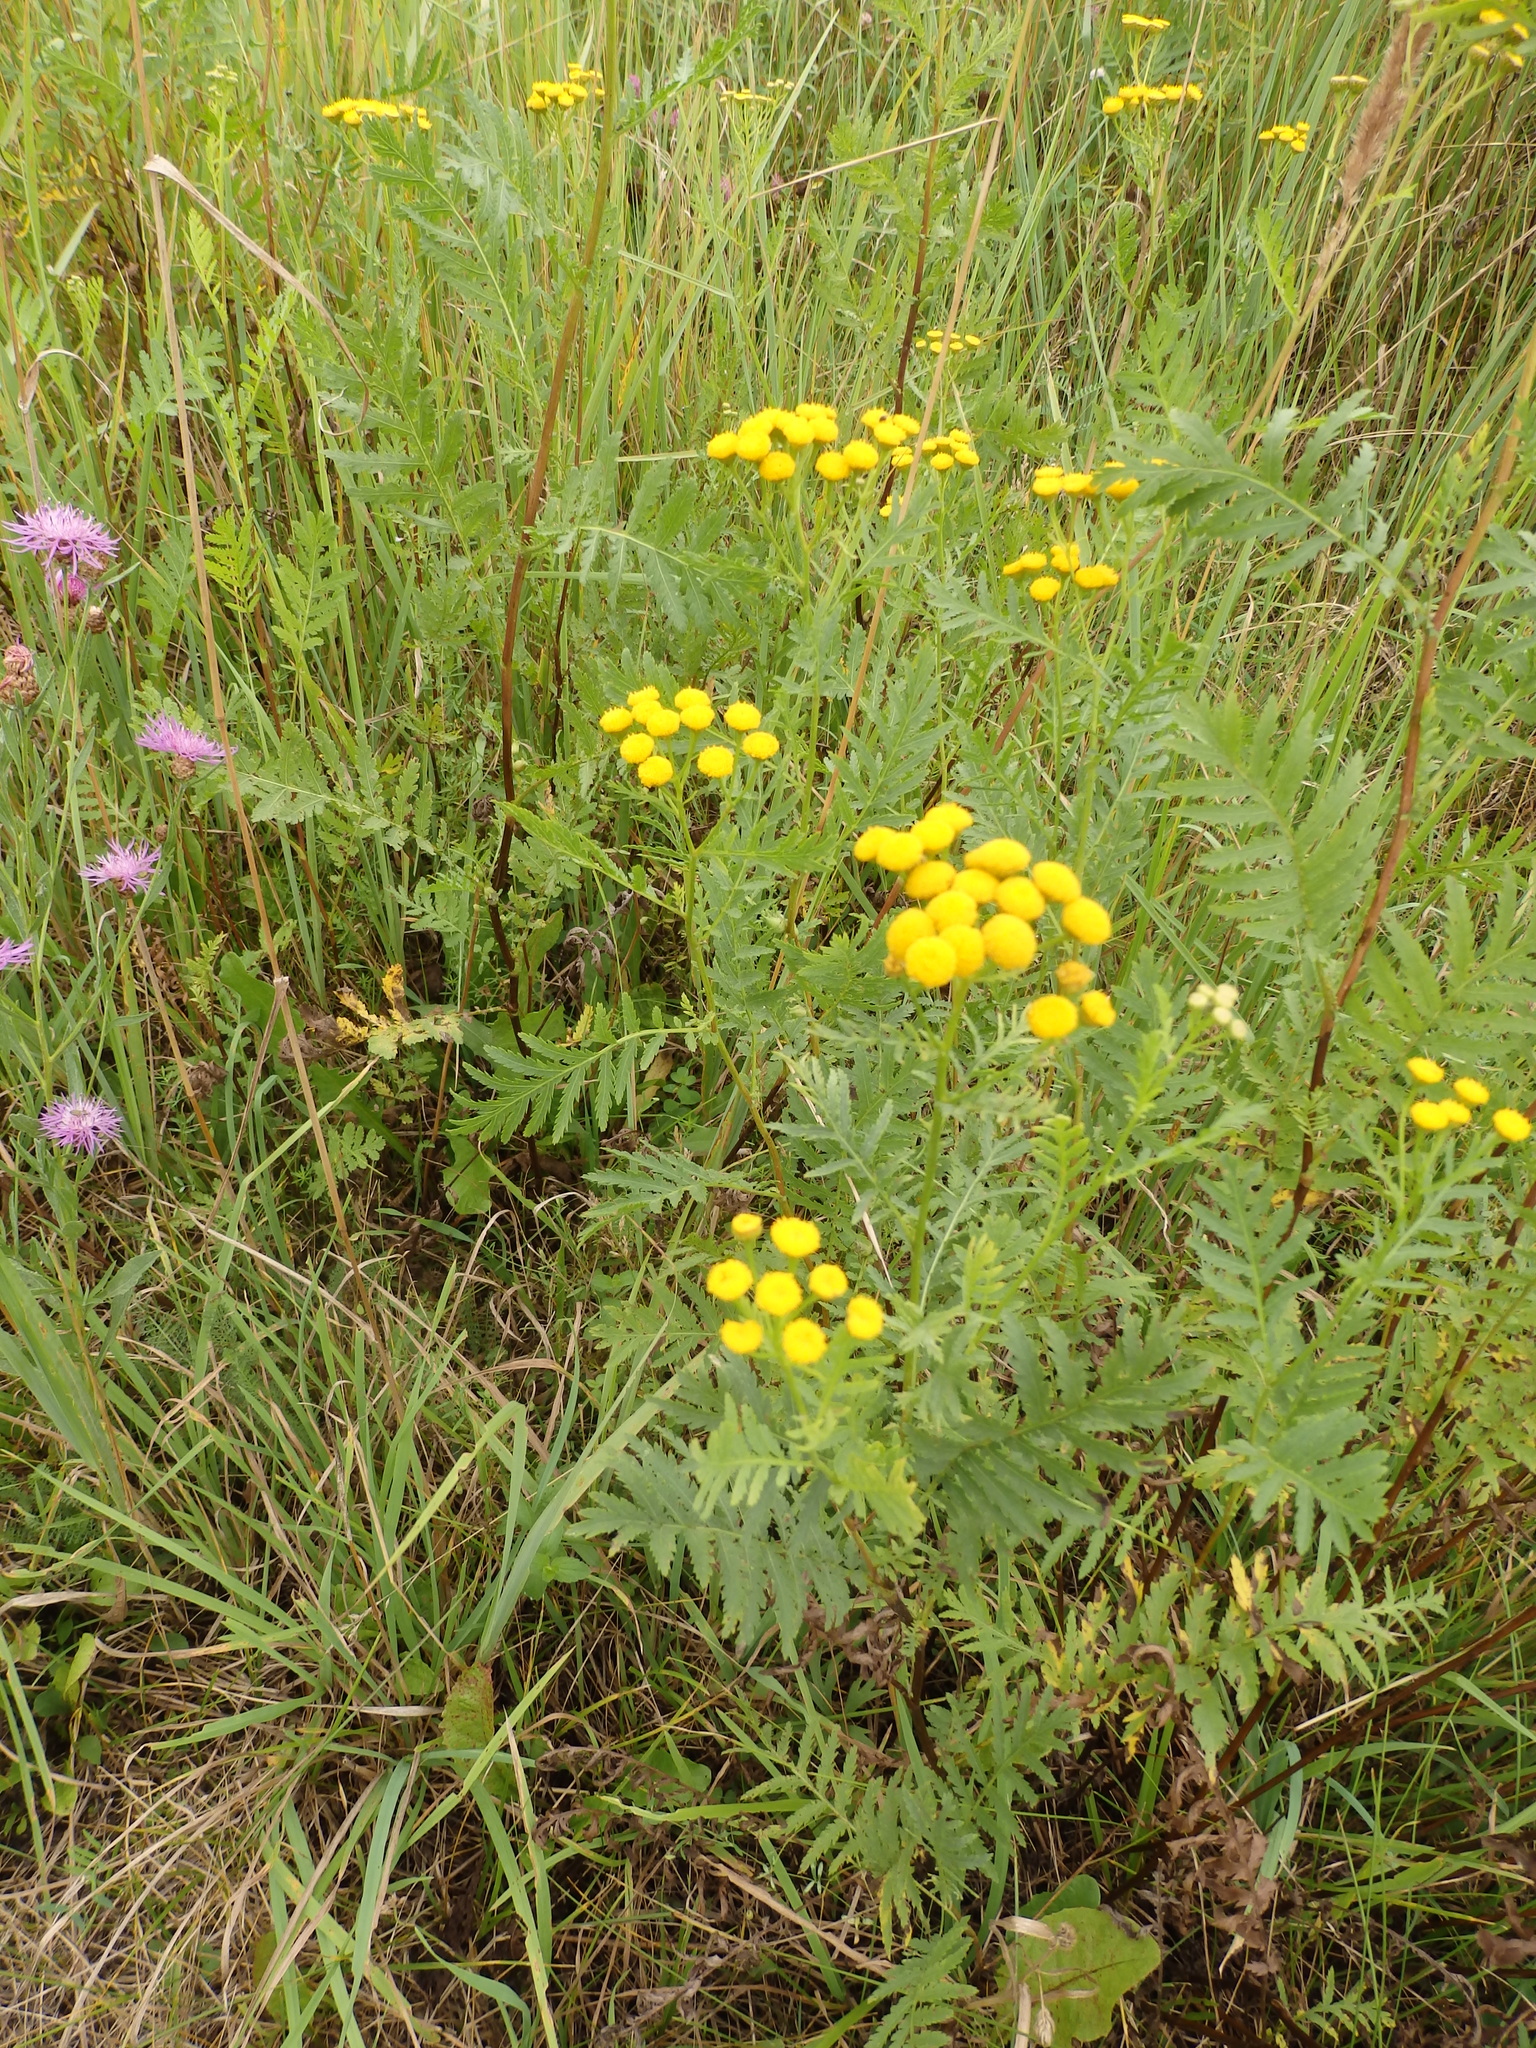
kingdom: Plantae
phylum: Tracheophyta
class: Magnoliopsida
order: Asterales
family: Asteraceae
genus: Tanacetum
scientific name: Tanacetum vulgare
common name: Common tansy
